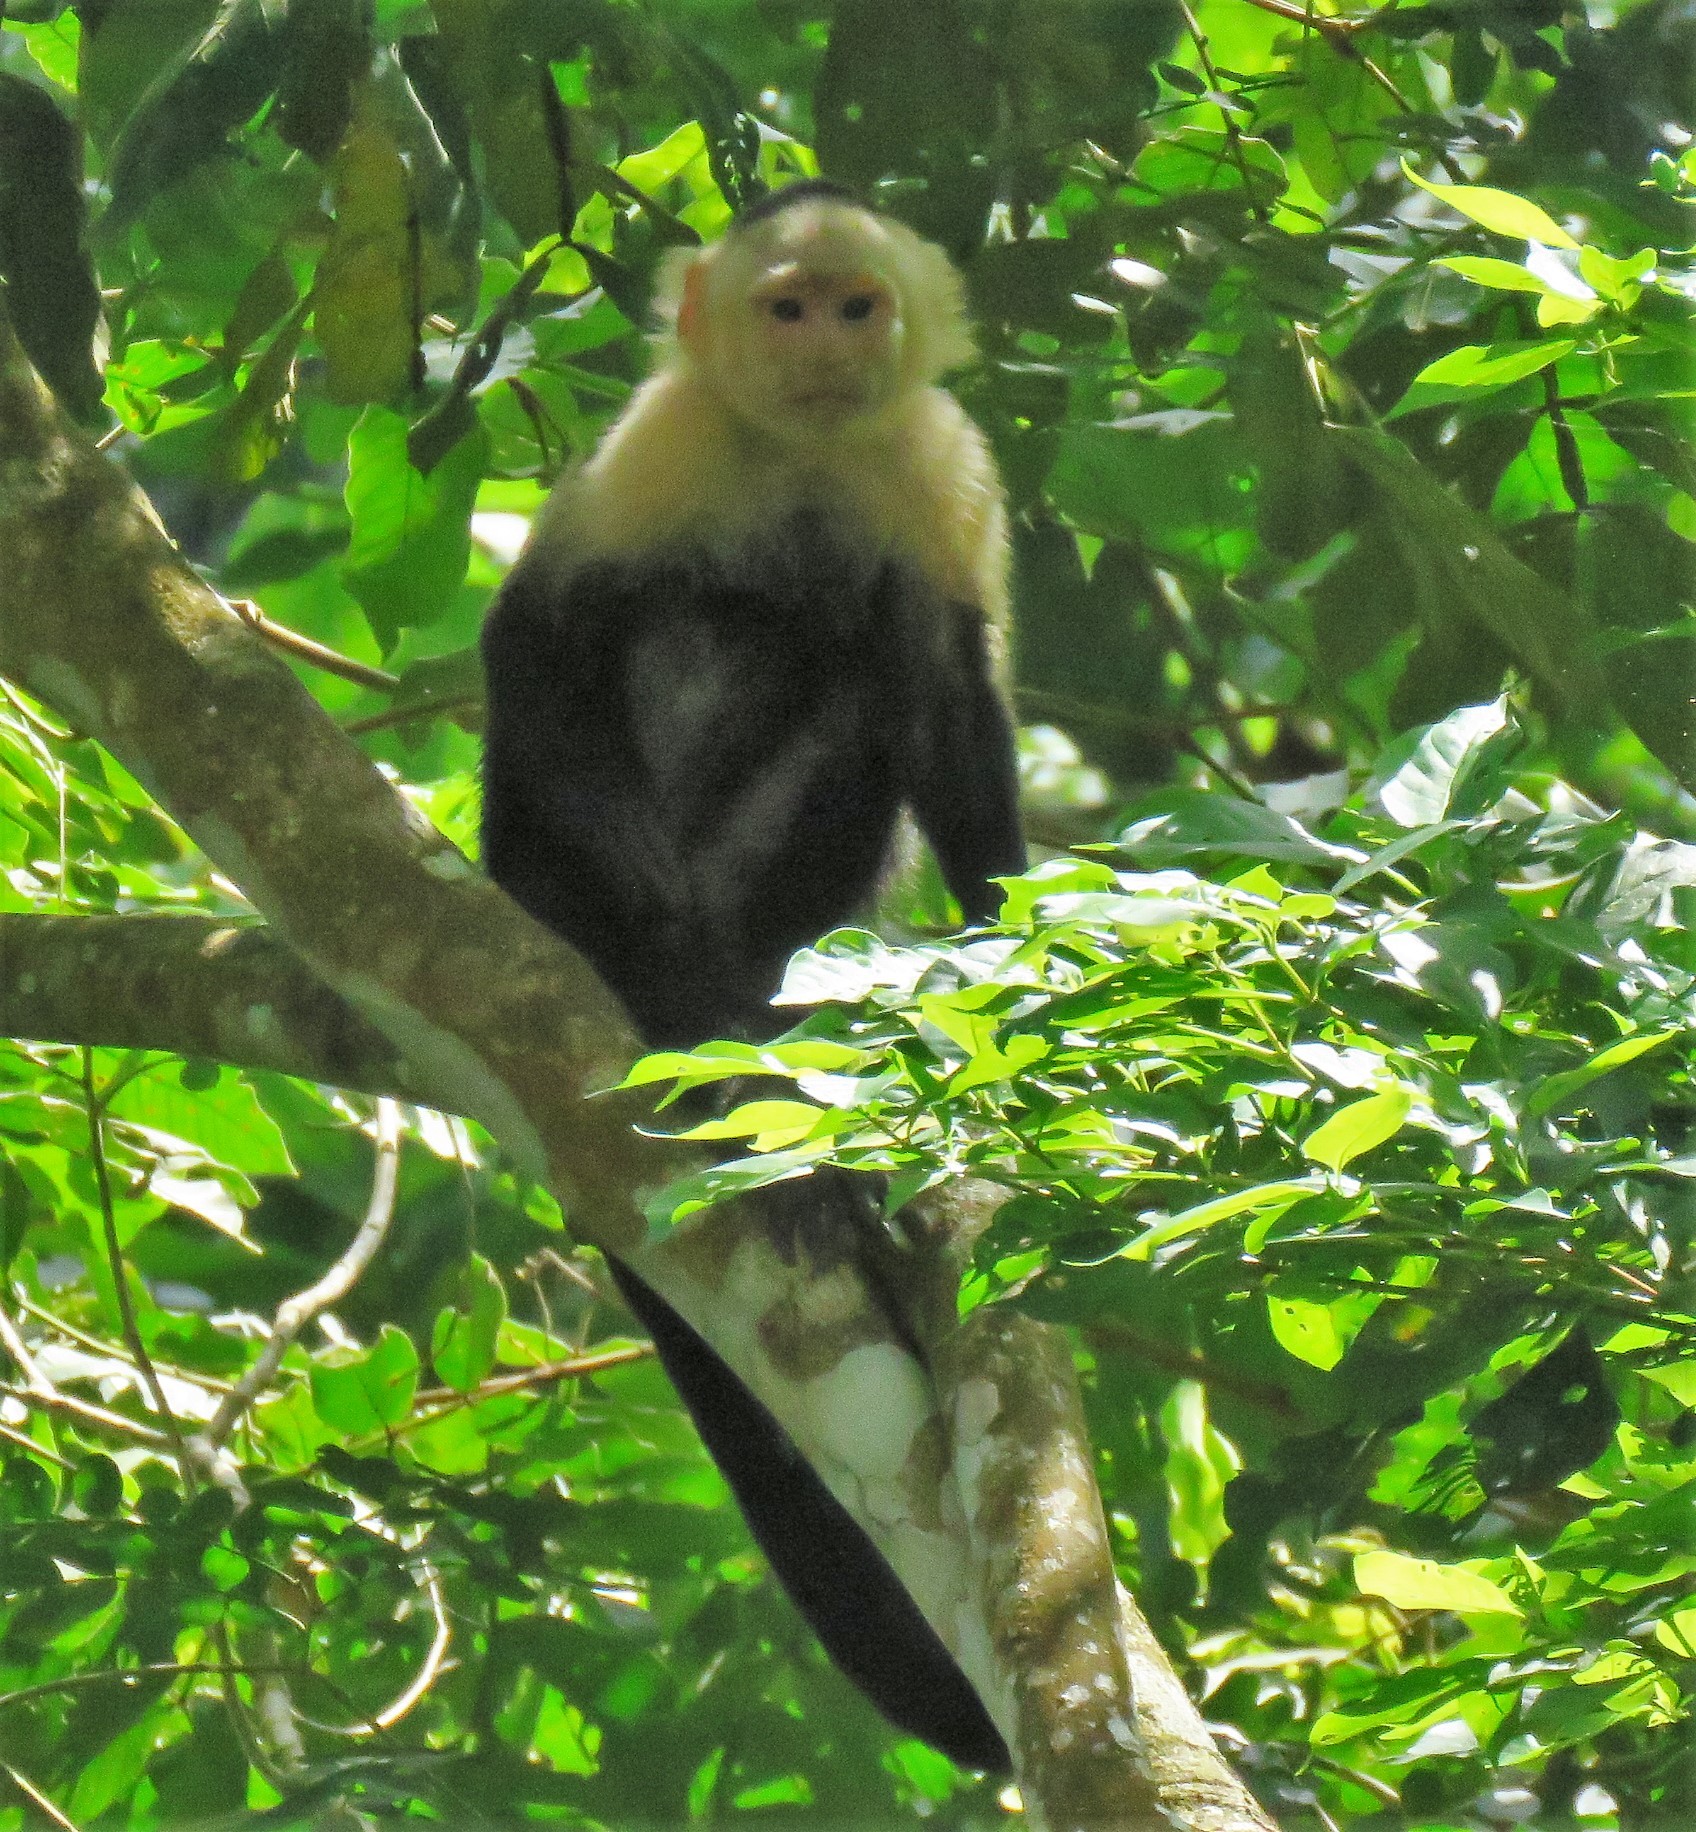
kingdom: Animalia
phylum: Chordata
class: Mammalia
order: Primates
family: Cebidae
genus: Cebus
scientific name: Cebus capucinus
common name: White-headed capuchin
